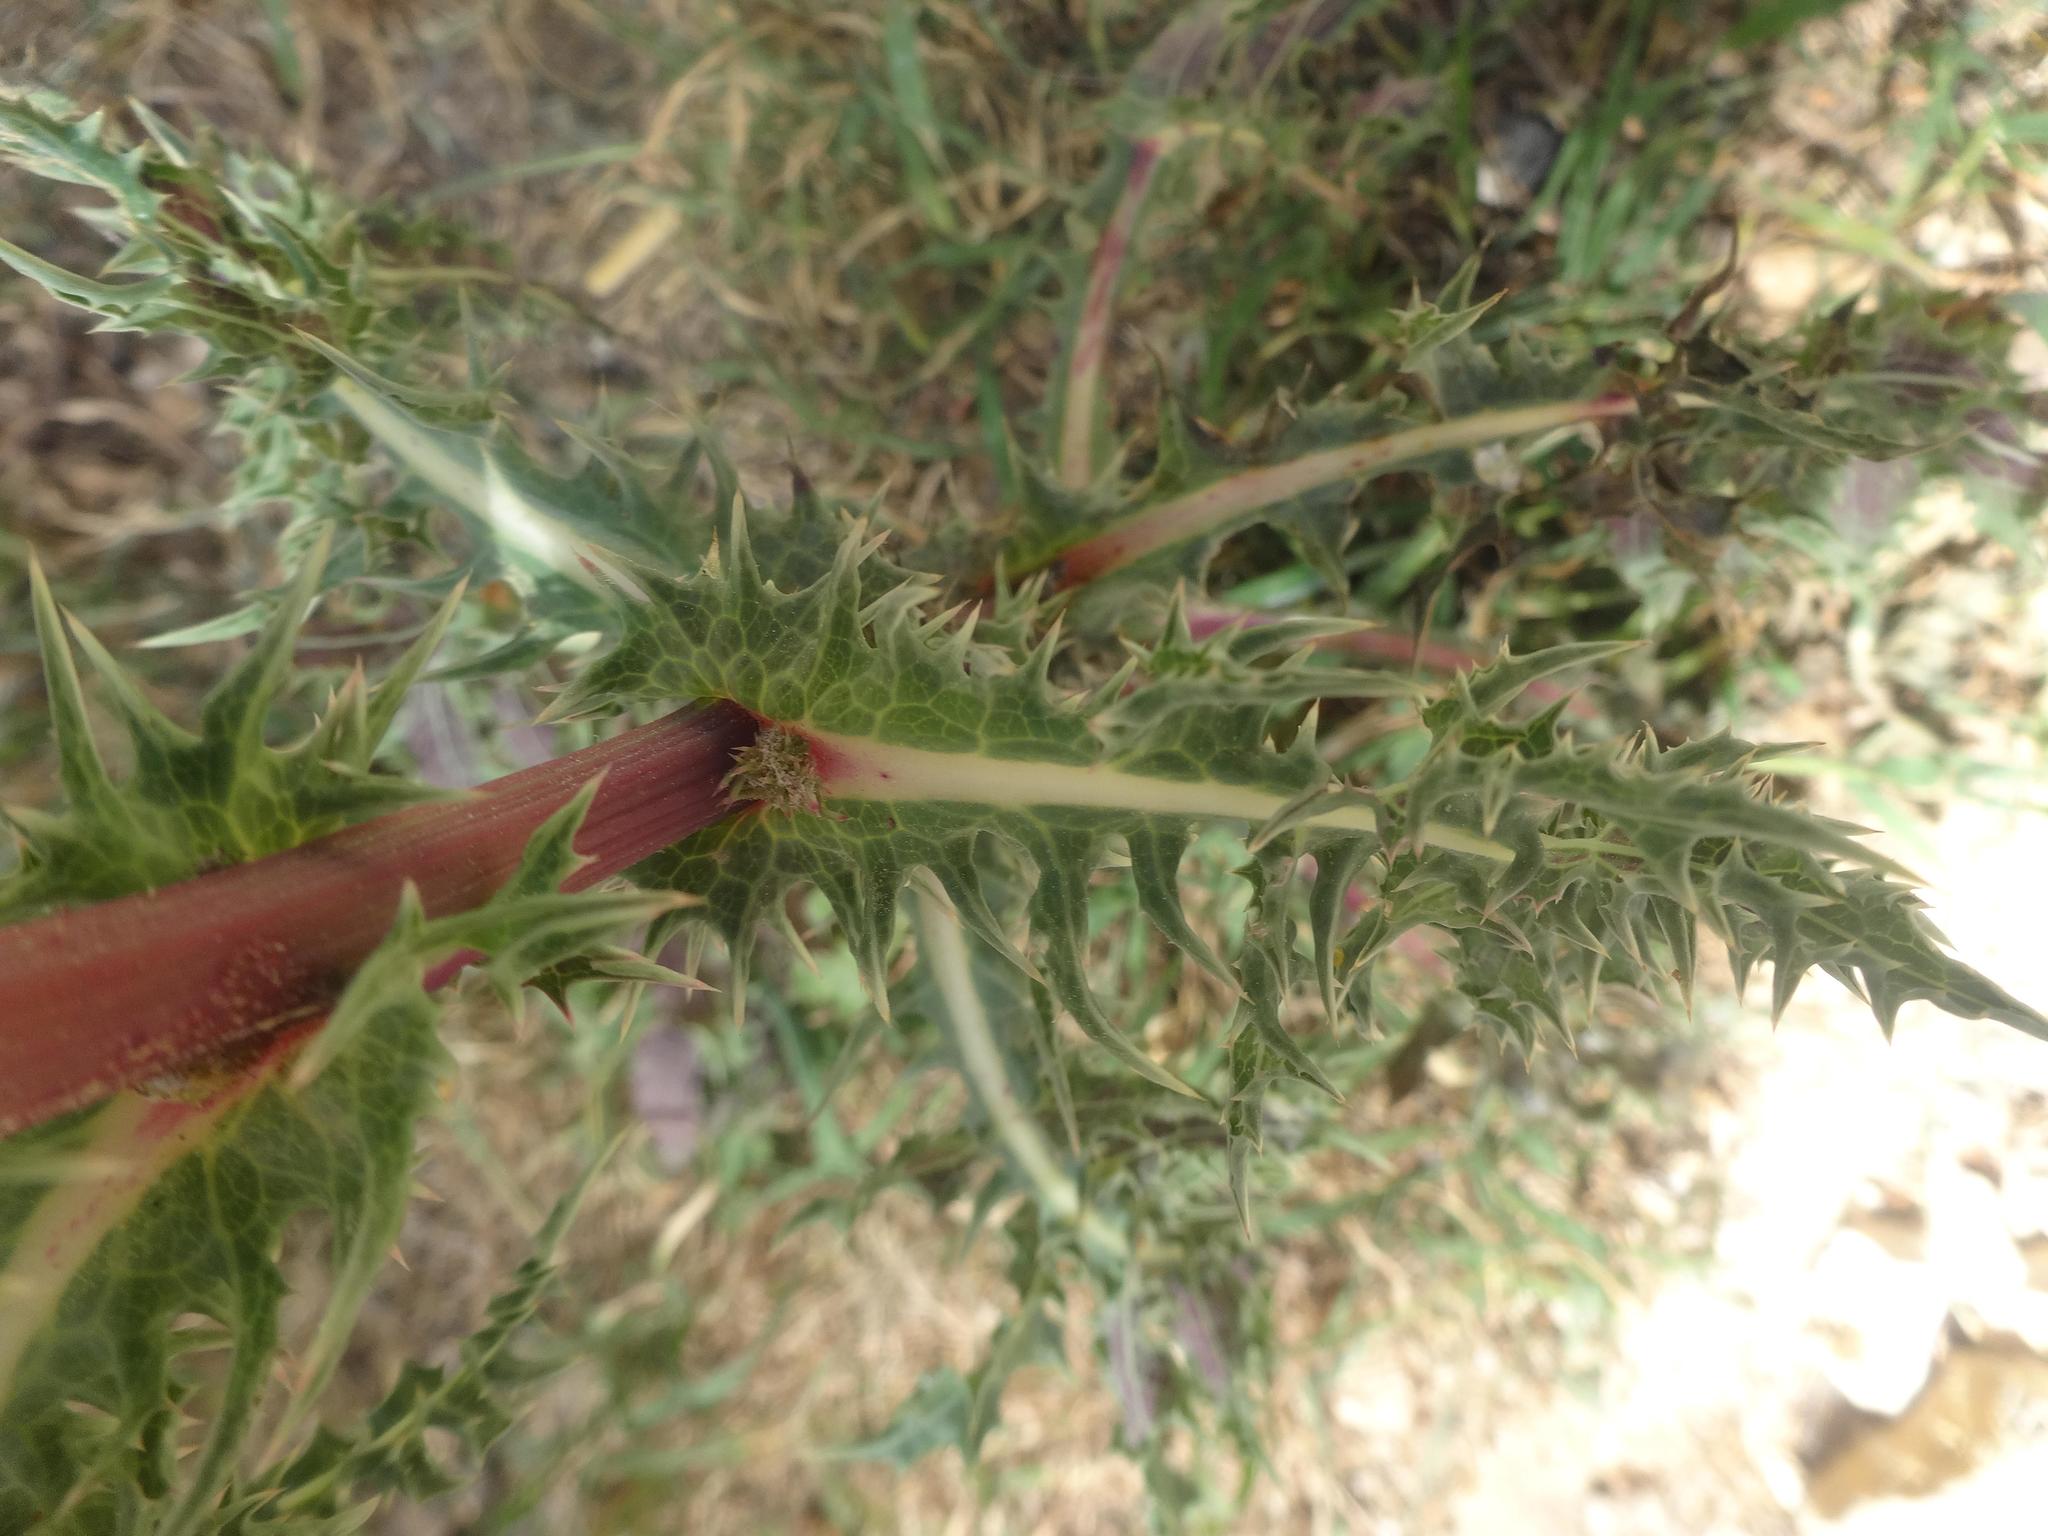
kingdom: Plantae
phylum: Tracheophyta
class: Magnoliopsida
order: Asterales
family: Asteraceae
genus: Sonchus
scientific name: Sonchus asper
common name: Prickly sow-thistle
